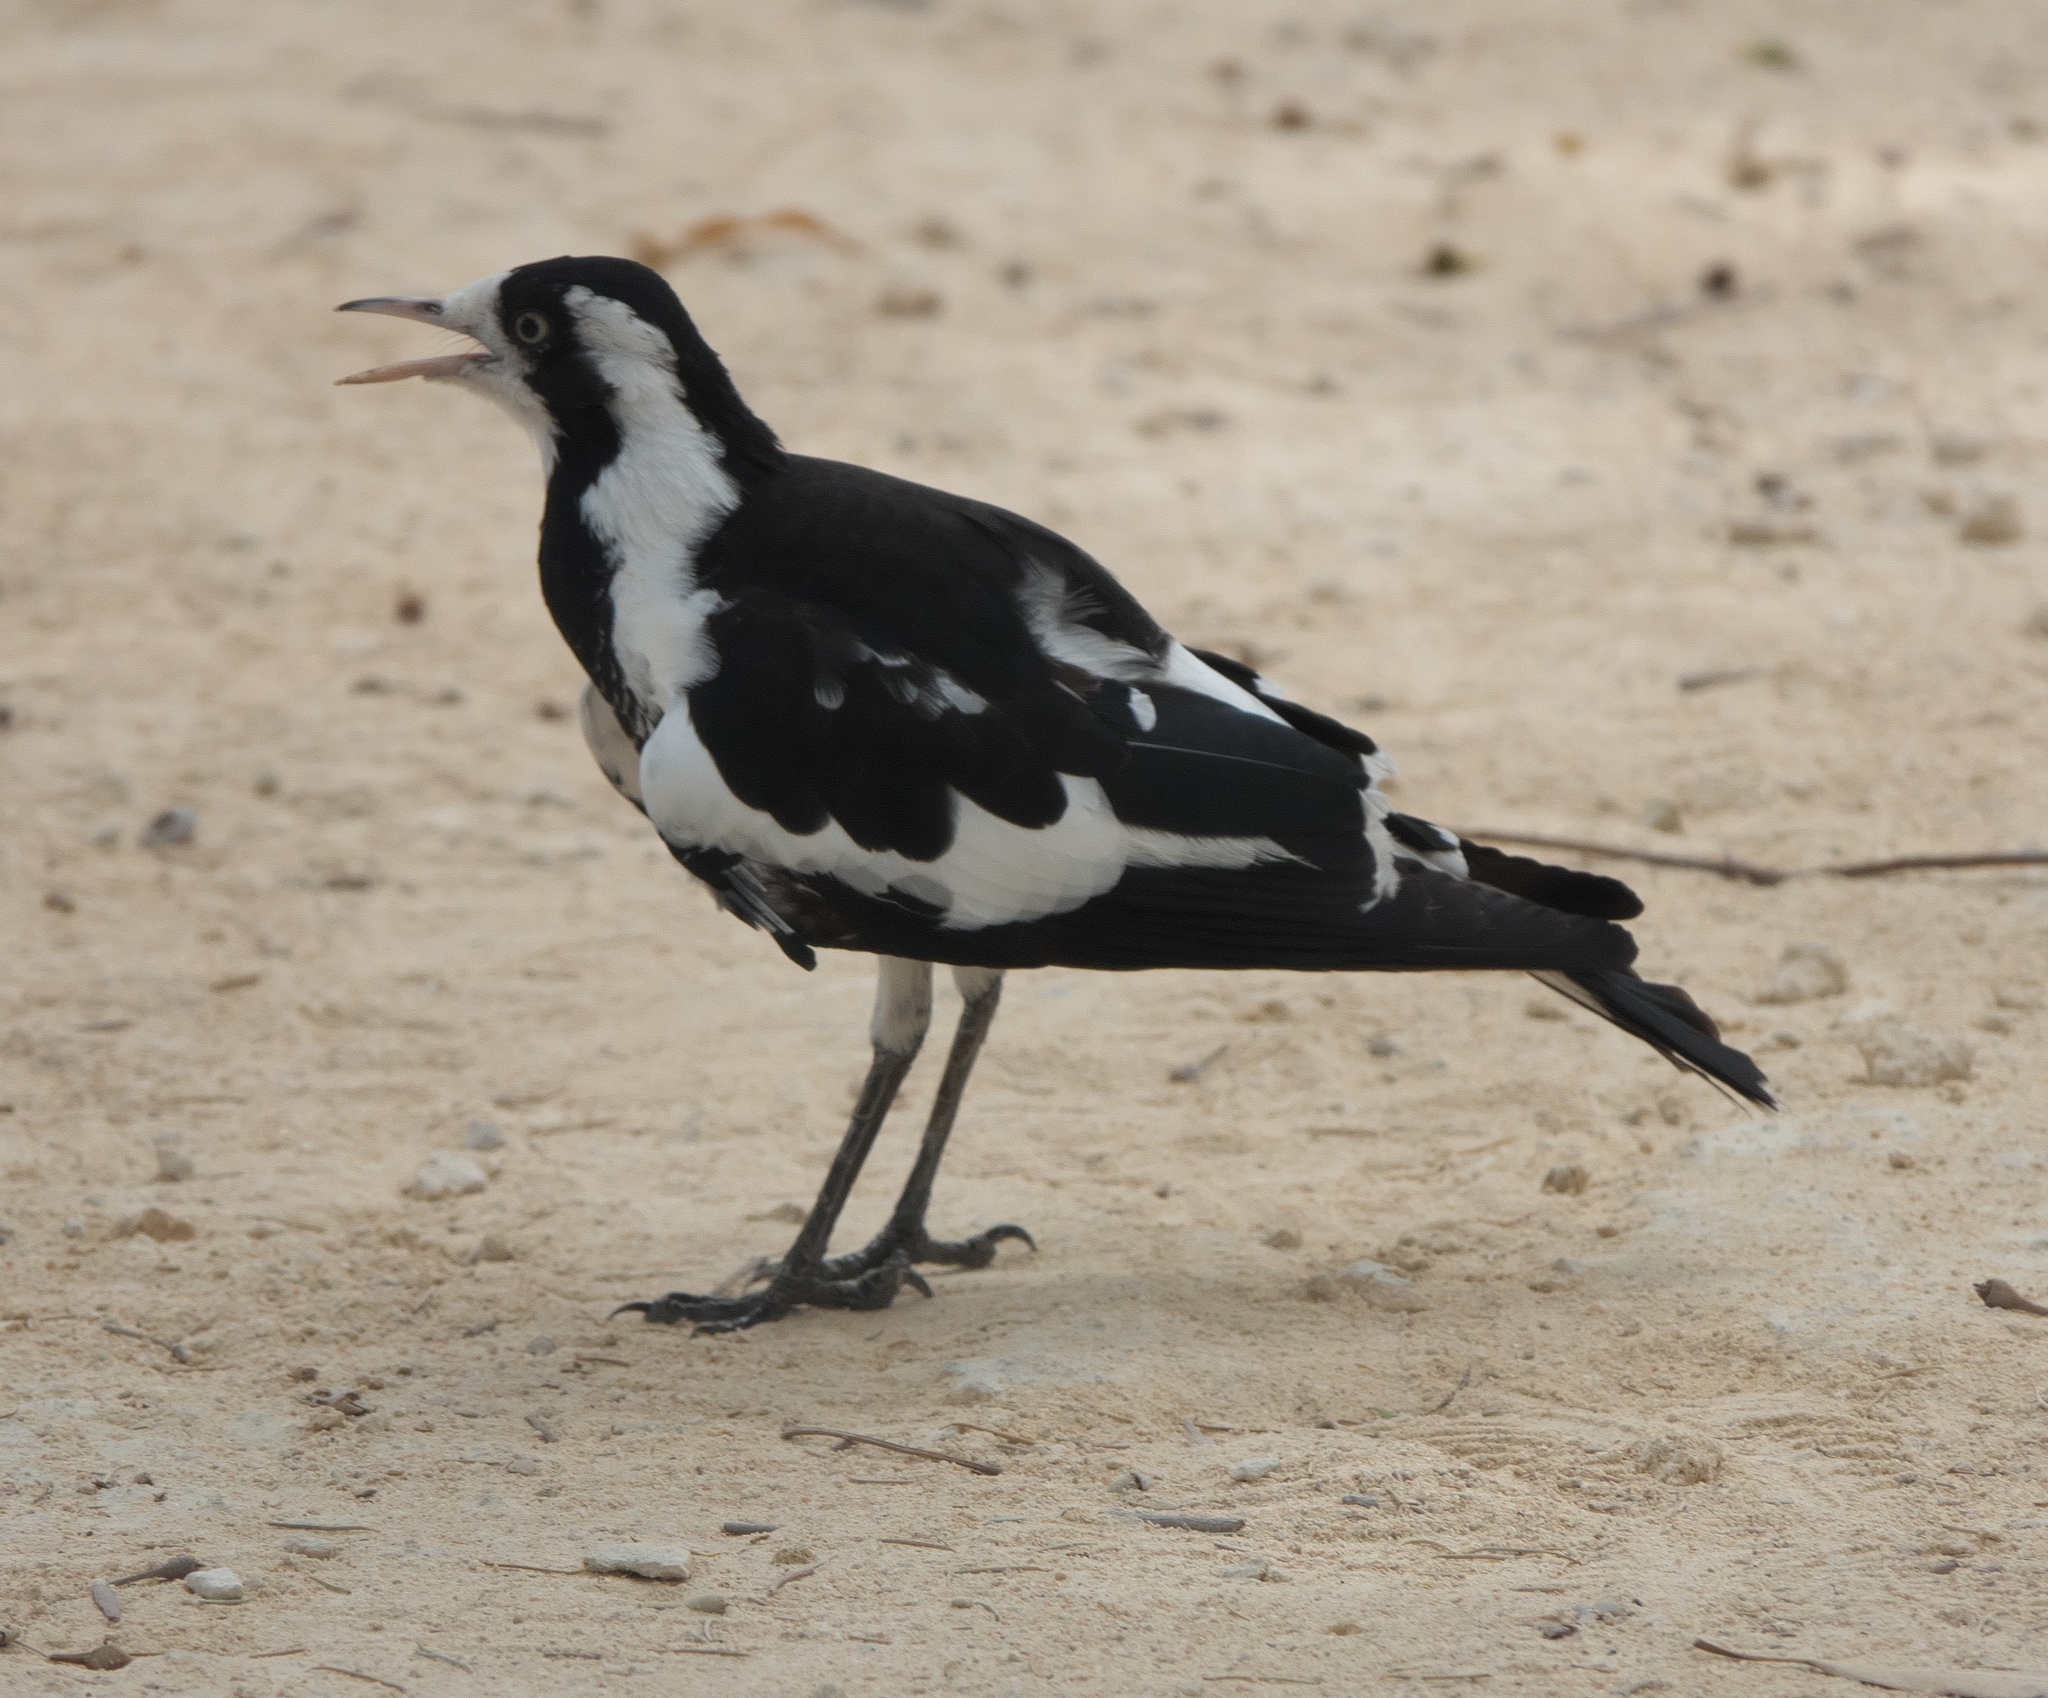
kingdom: Animalia
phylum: Chordata
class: Aves
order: Passeriformes
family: Monarchidae
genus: Grallina
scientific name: Grallina cyanoleuca
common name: Magpie-lark
